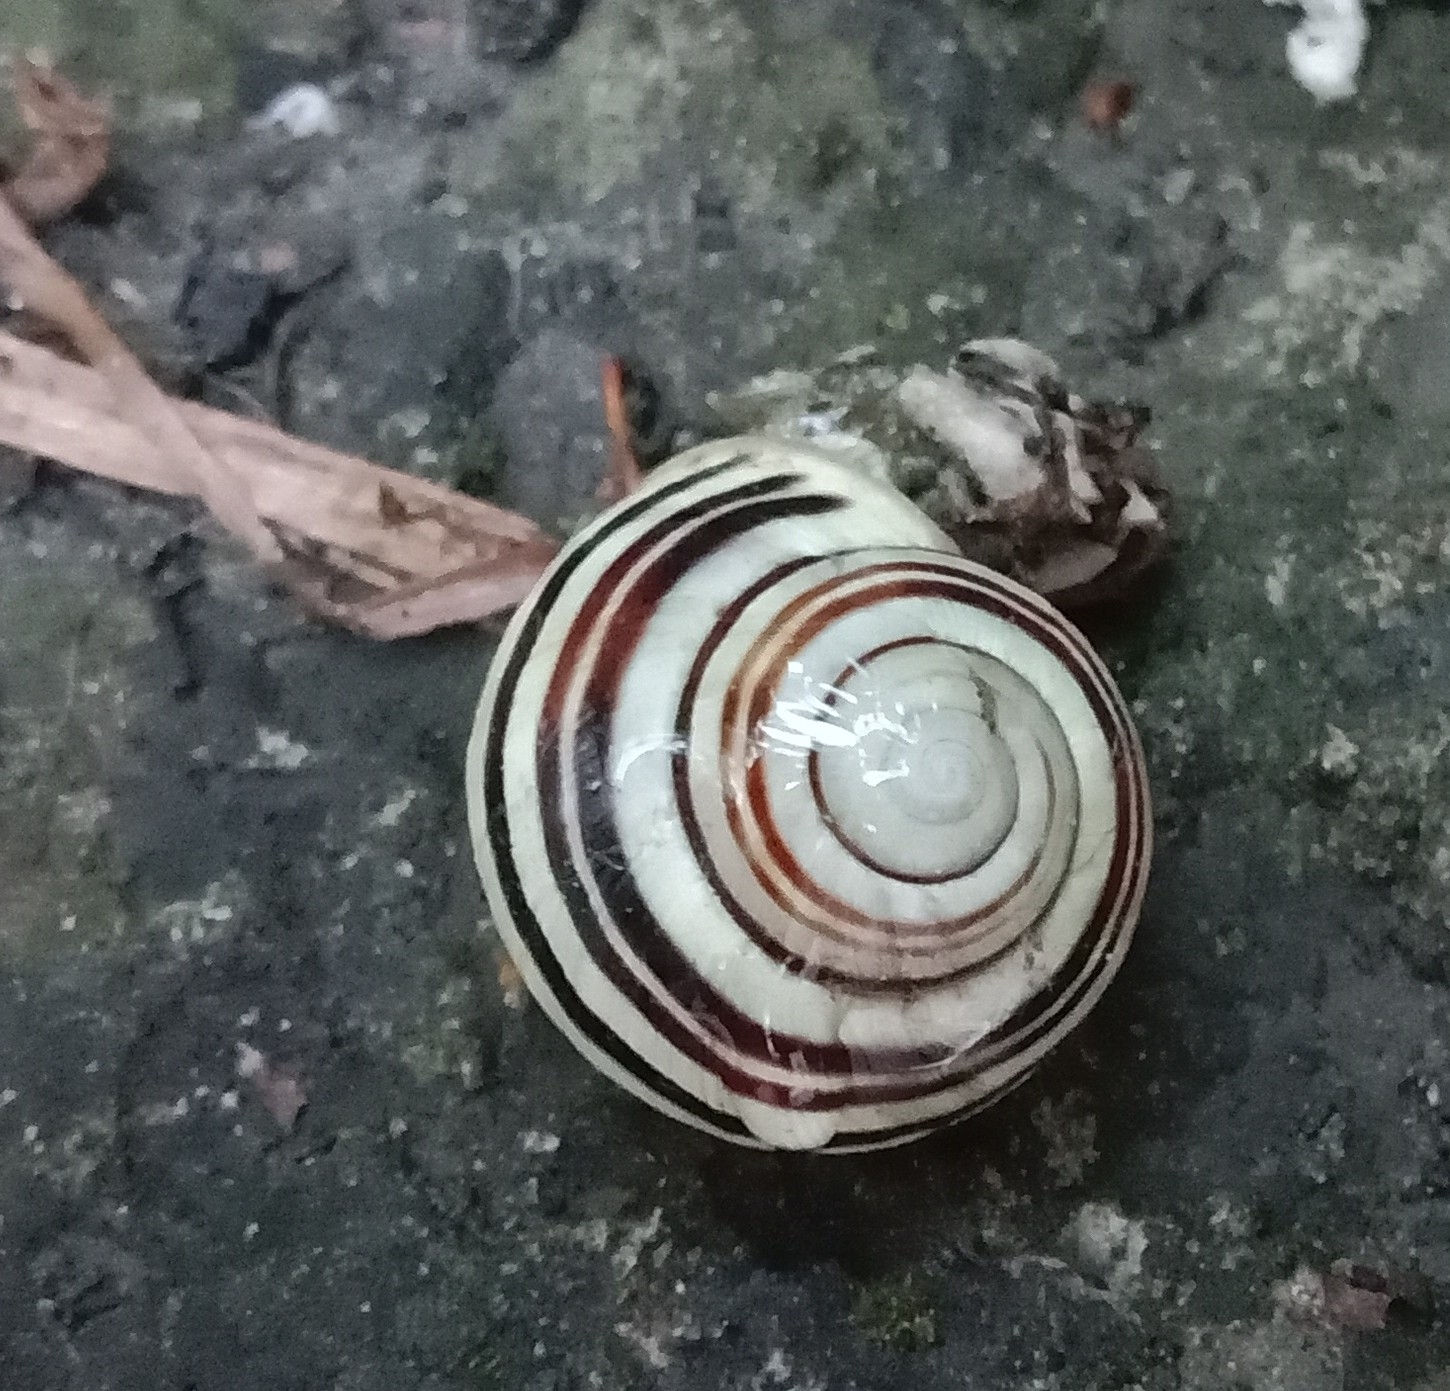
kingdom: Animalia
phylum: Mollusca
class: Gastropoda
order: Stylommatophora
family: Helicidae
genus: Cepaea
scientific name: Cepaea hortensis
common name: White-lip gardensnail
